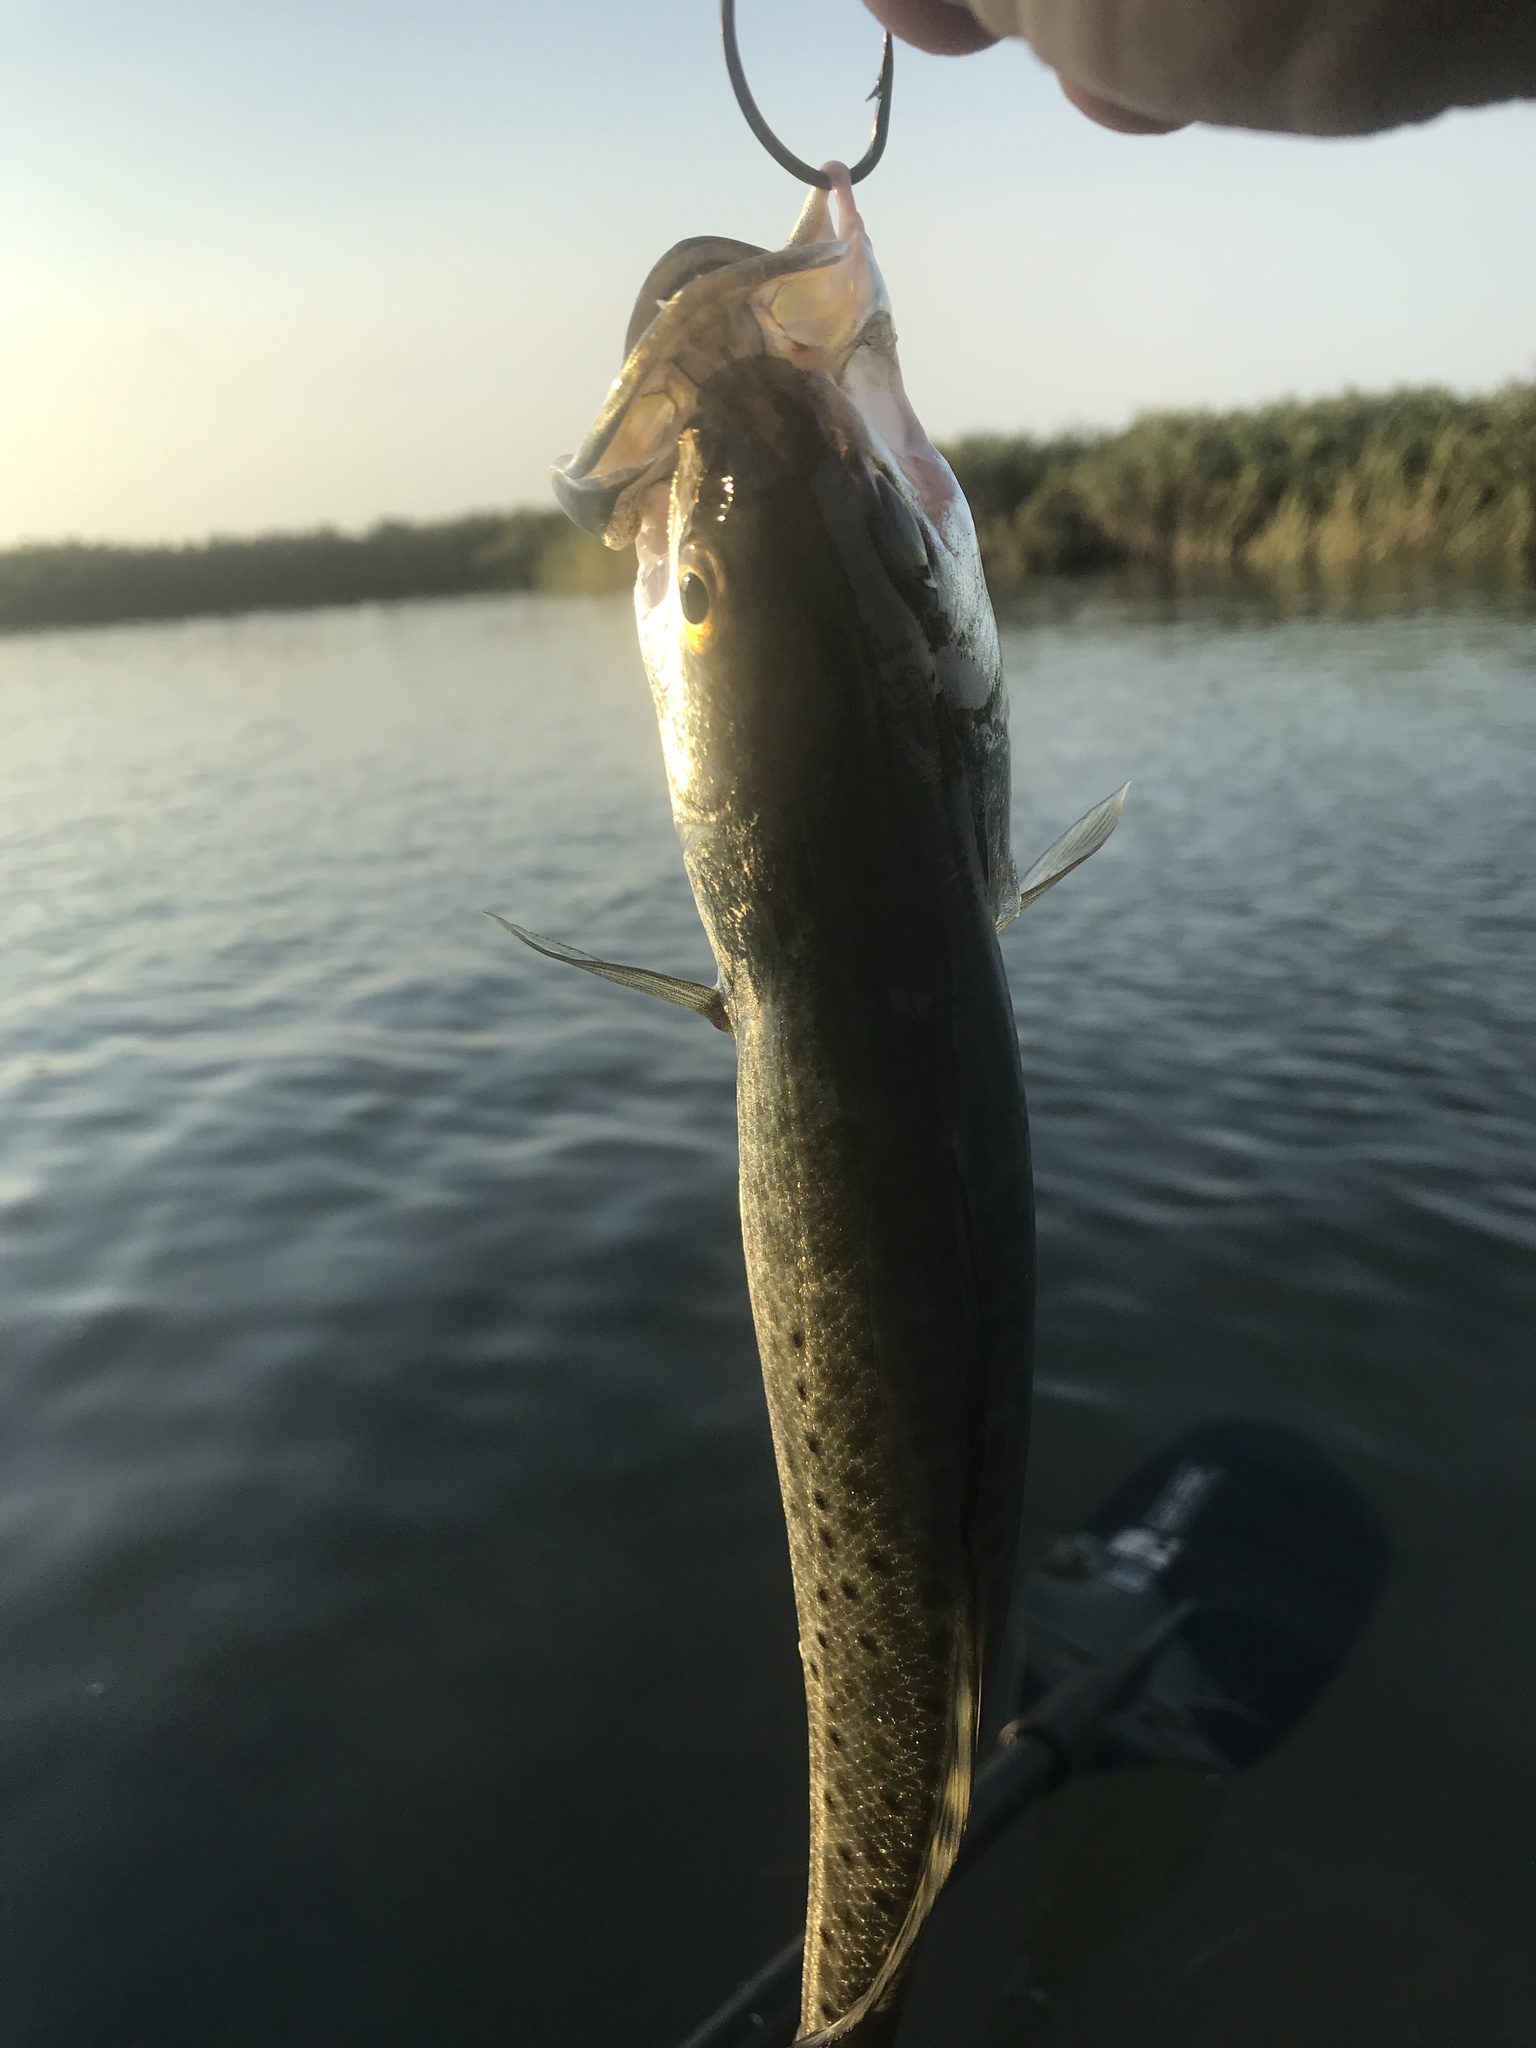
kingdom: Animalia
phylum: Chordata
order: Perciformes
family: Sciaenidae
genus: Cynoscion
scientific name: Cynoscion nebulosus
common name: Spotted seatrout
